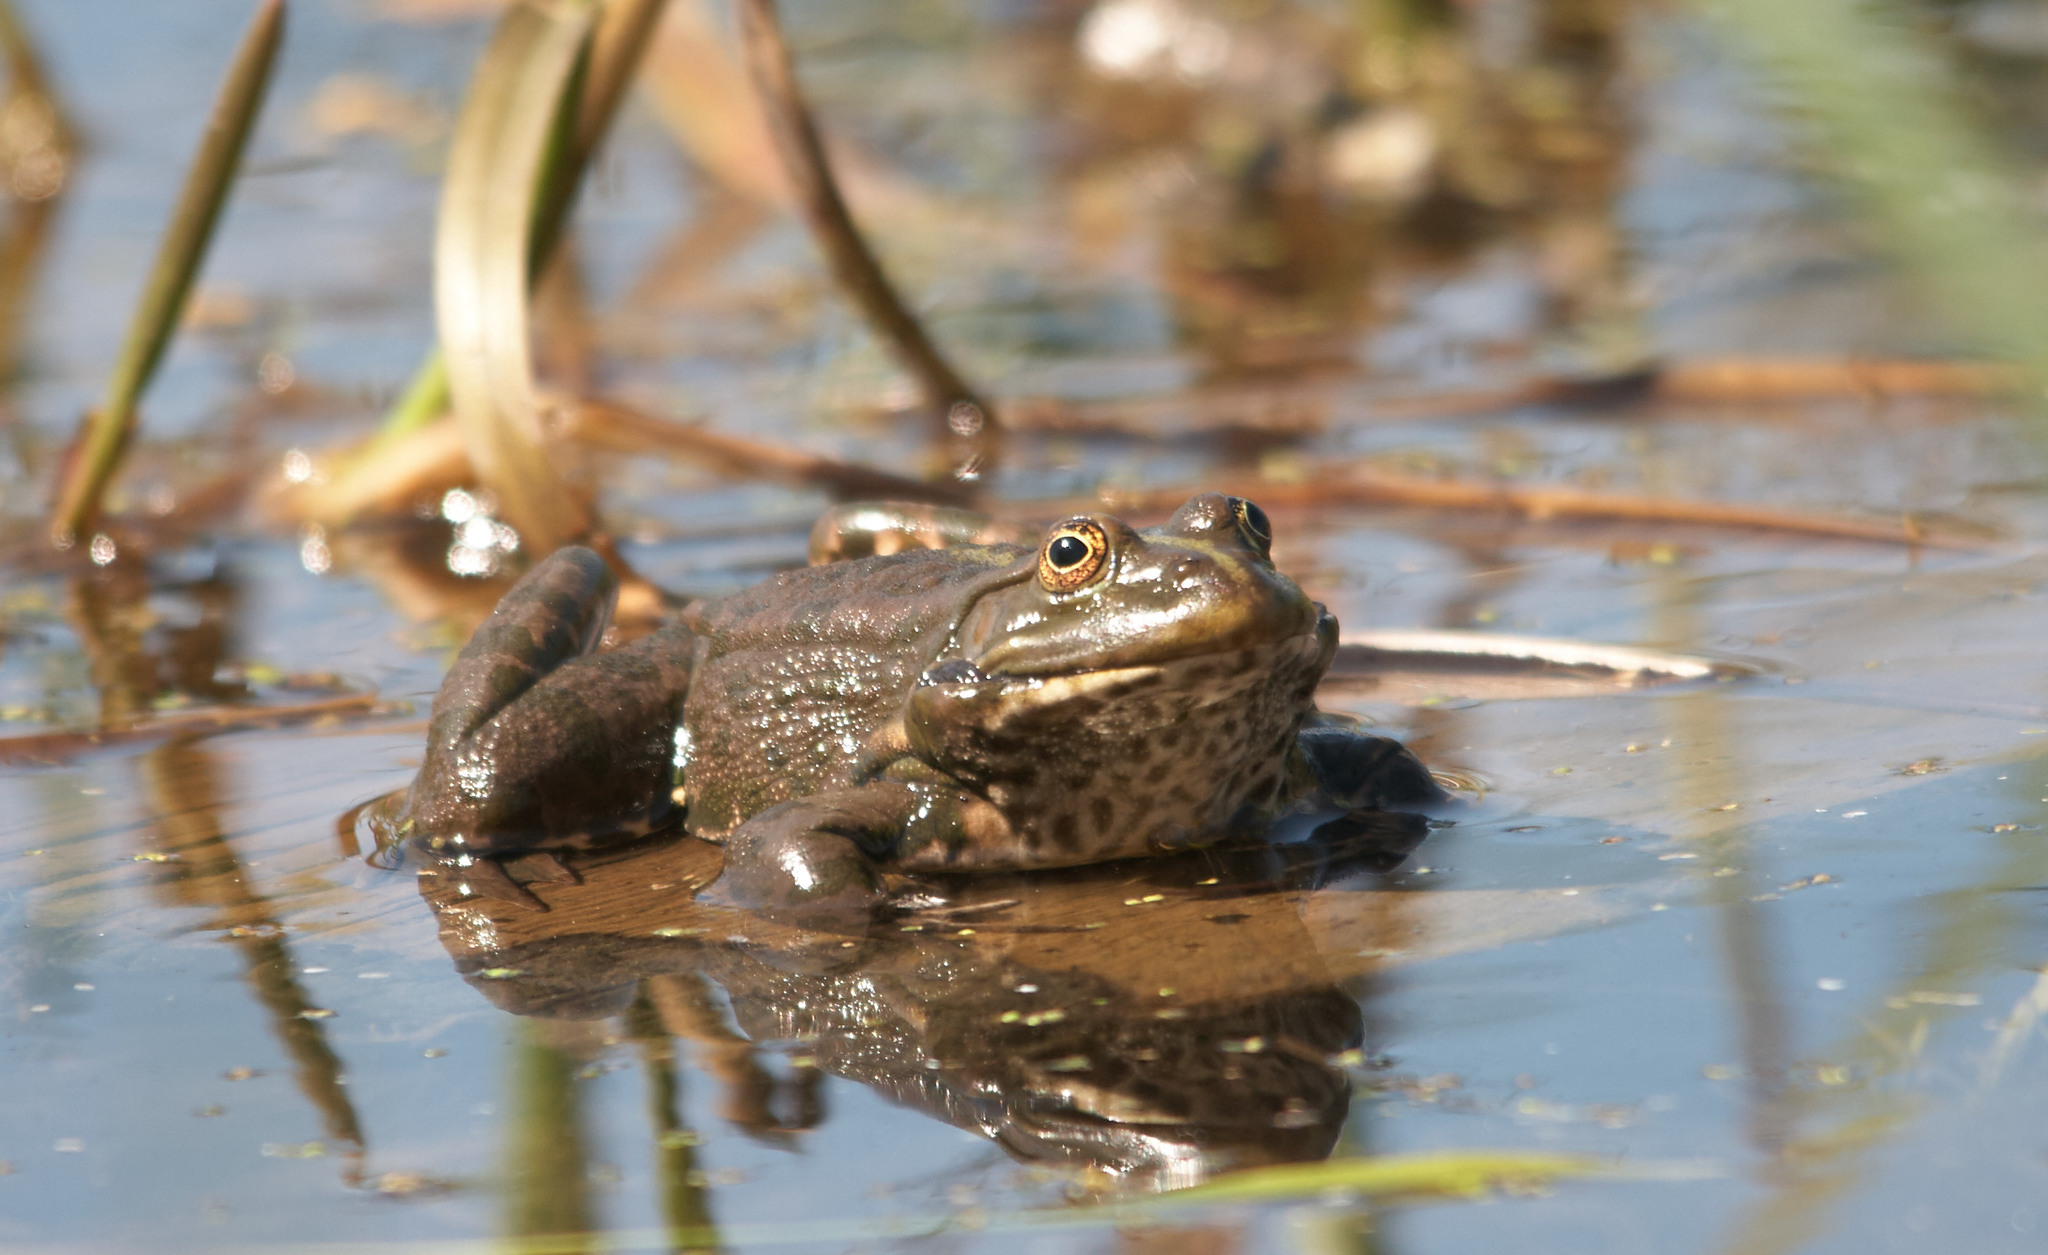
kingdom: Animalia
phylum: Chordata
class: Amphibia
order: Anura
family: Ranidae
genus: Pelophylax
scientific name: Pelophylax ridibundus
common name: Marsh frog
